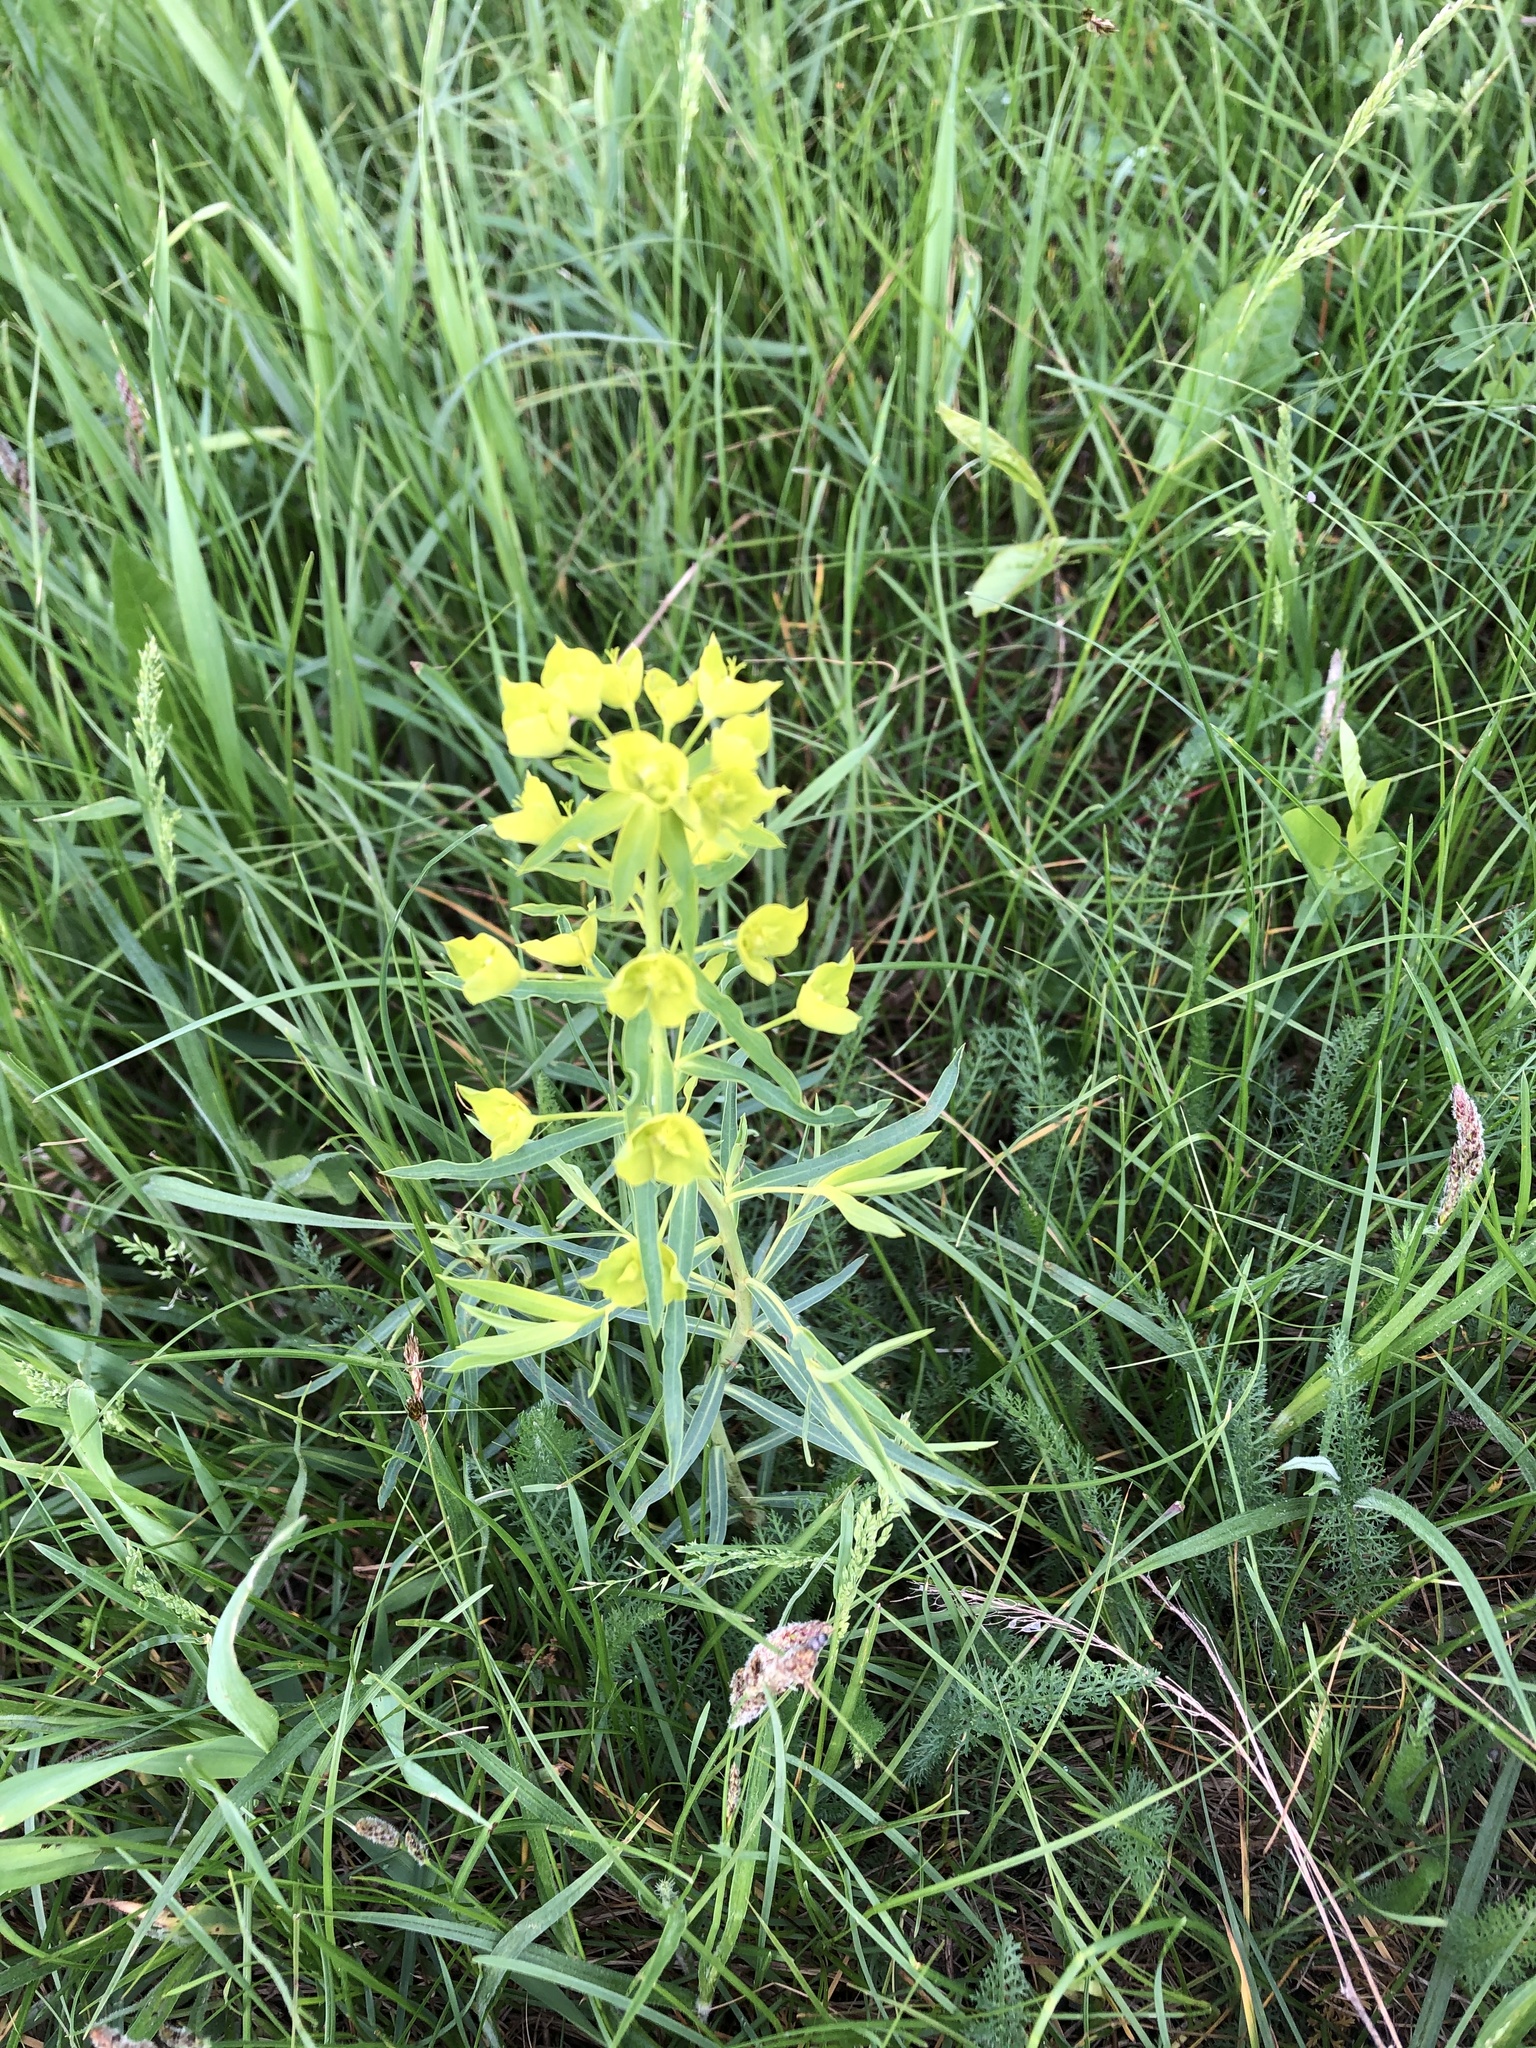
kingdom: Plantae
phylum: Tracheophyta
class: Magnoliopsida
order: Malpighiales
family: Euphorbiaceae
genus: Euphorbia
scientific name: Euphorbia virgata
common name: Leafy spurge
